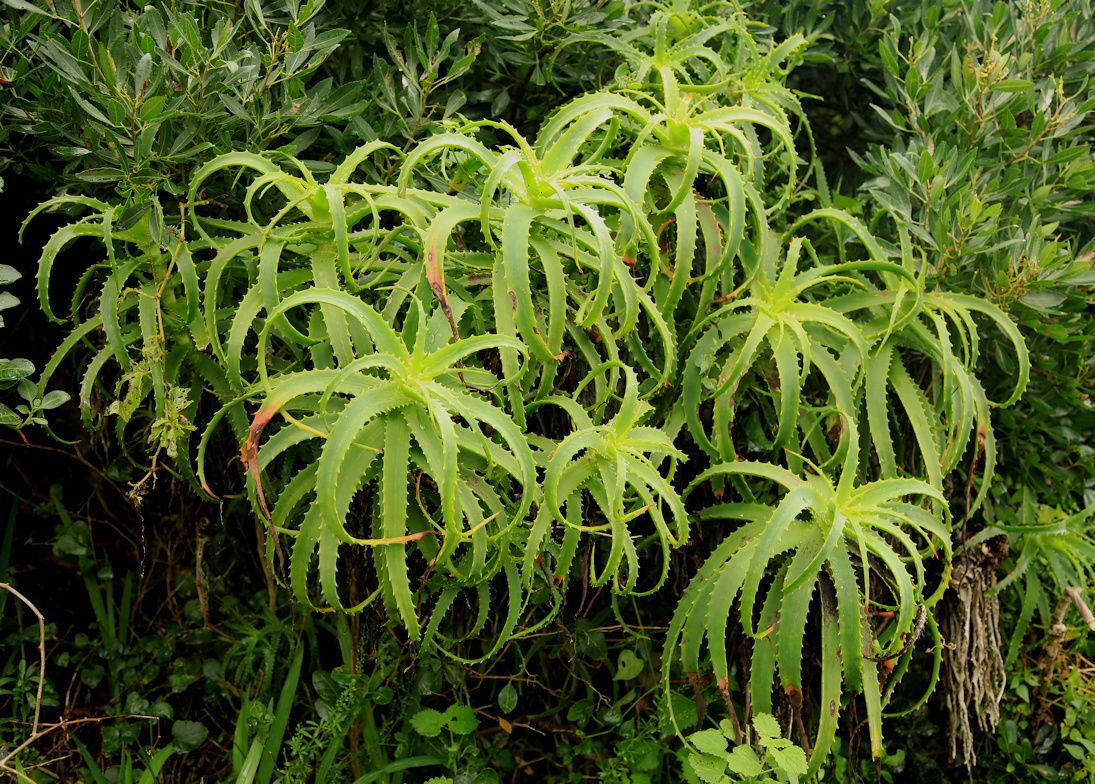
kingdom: Plantae
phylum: Tracheophyta
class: Liliopsida
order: Asparagales
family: Asphodelaceae
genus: Aloe
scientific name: Aloe arborescens
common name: Candelabra aloe
